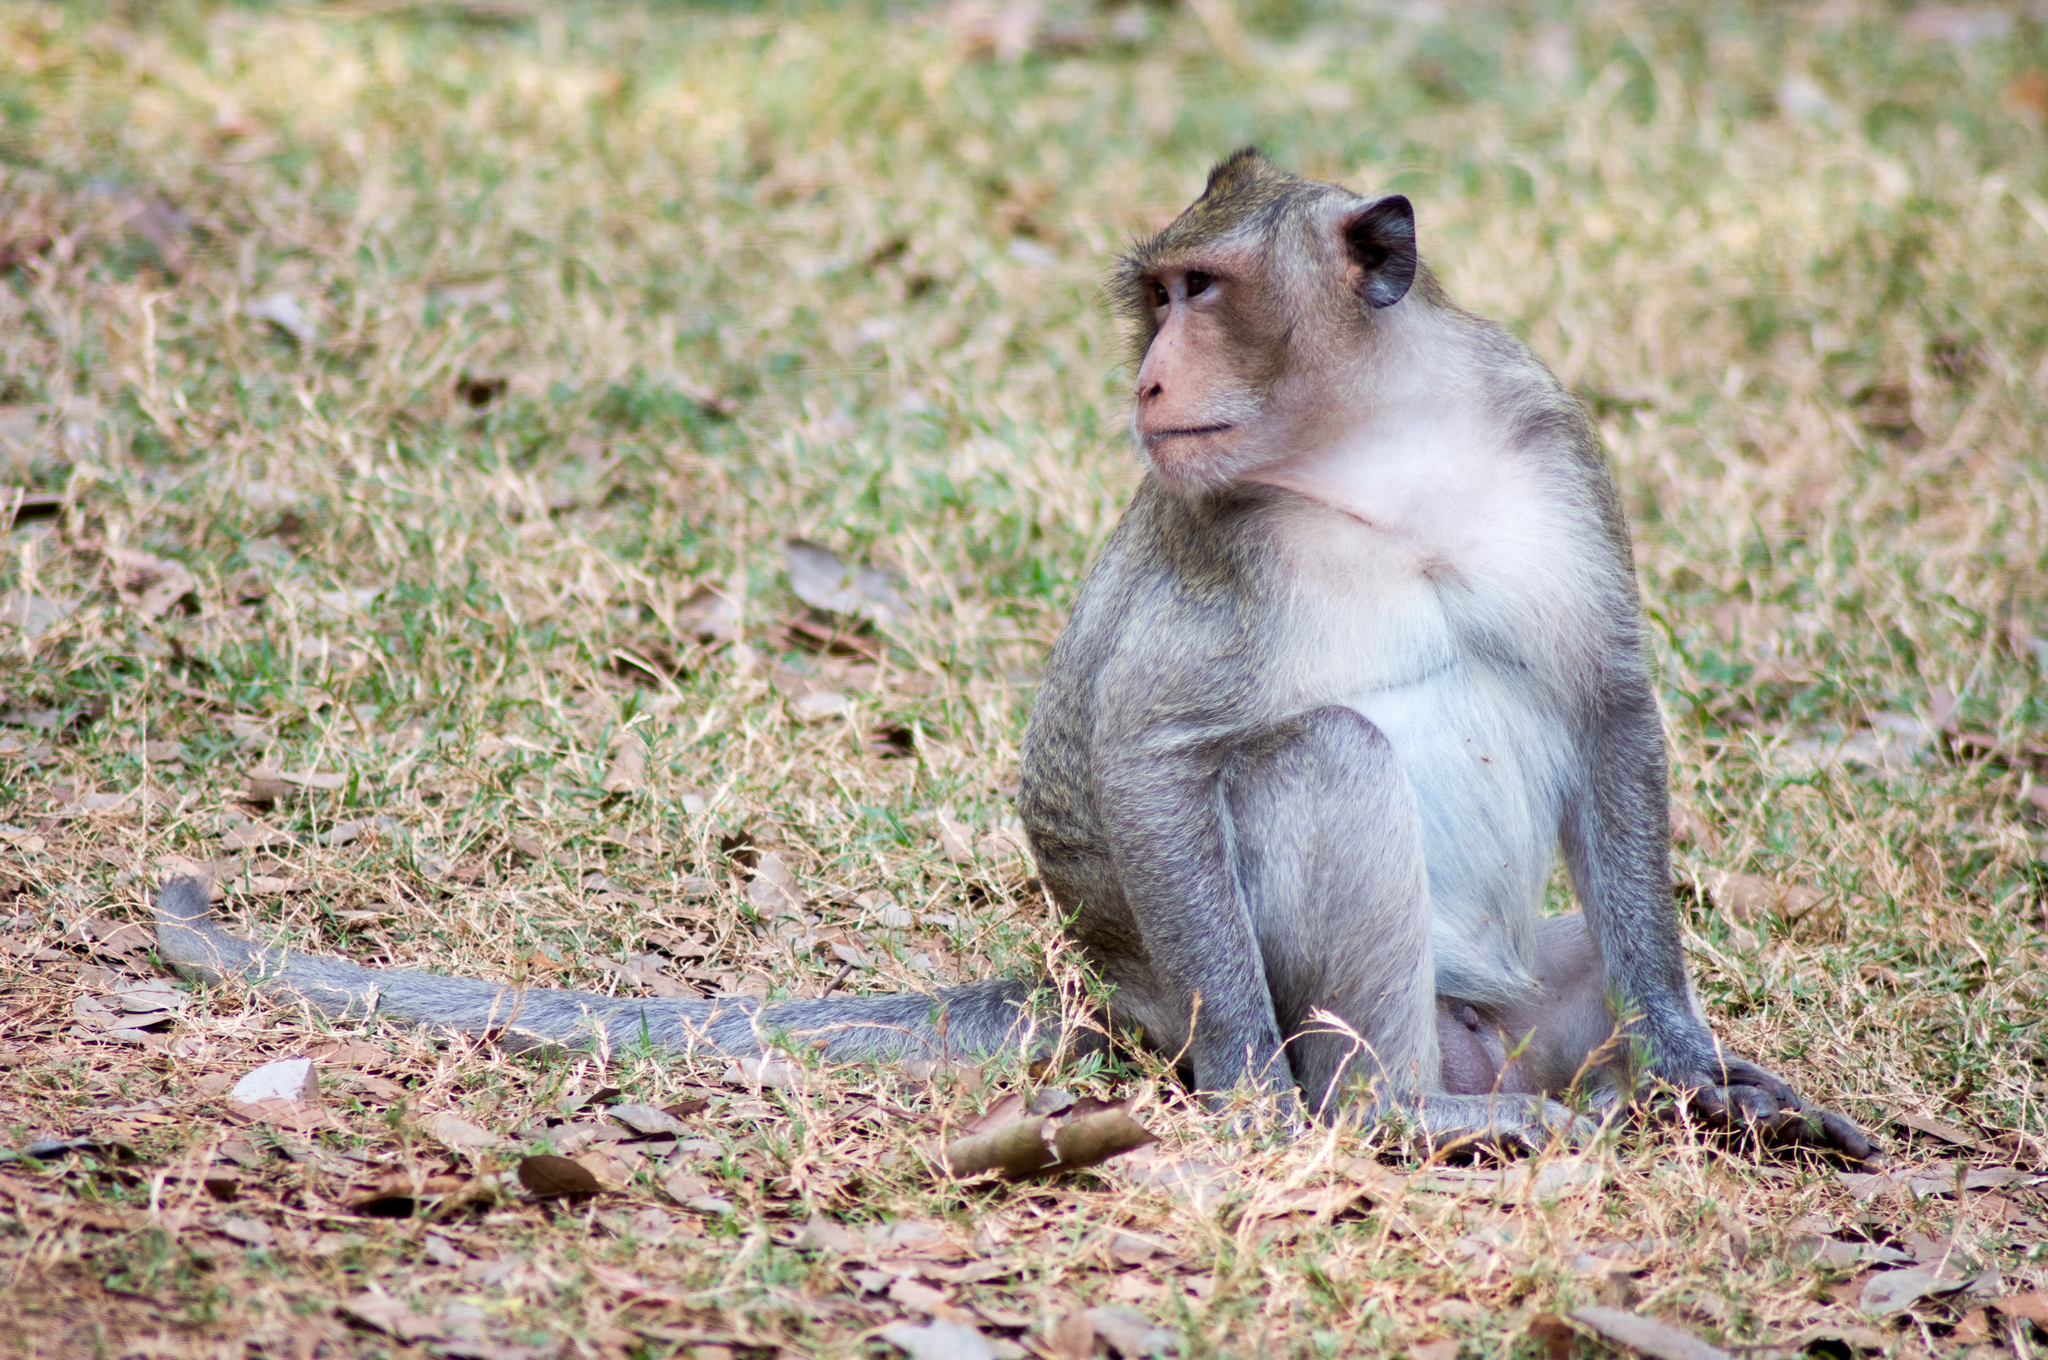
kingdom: Animalia
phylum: Chordata
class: Mammalia
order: Primates
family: Cercopithecidae
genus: Macaca
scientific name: Macaca fascicularis
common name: Crab-eating macaque
